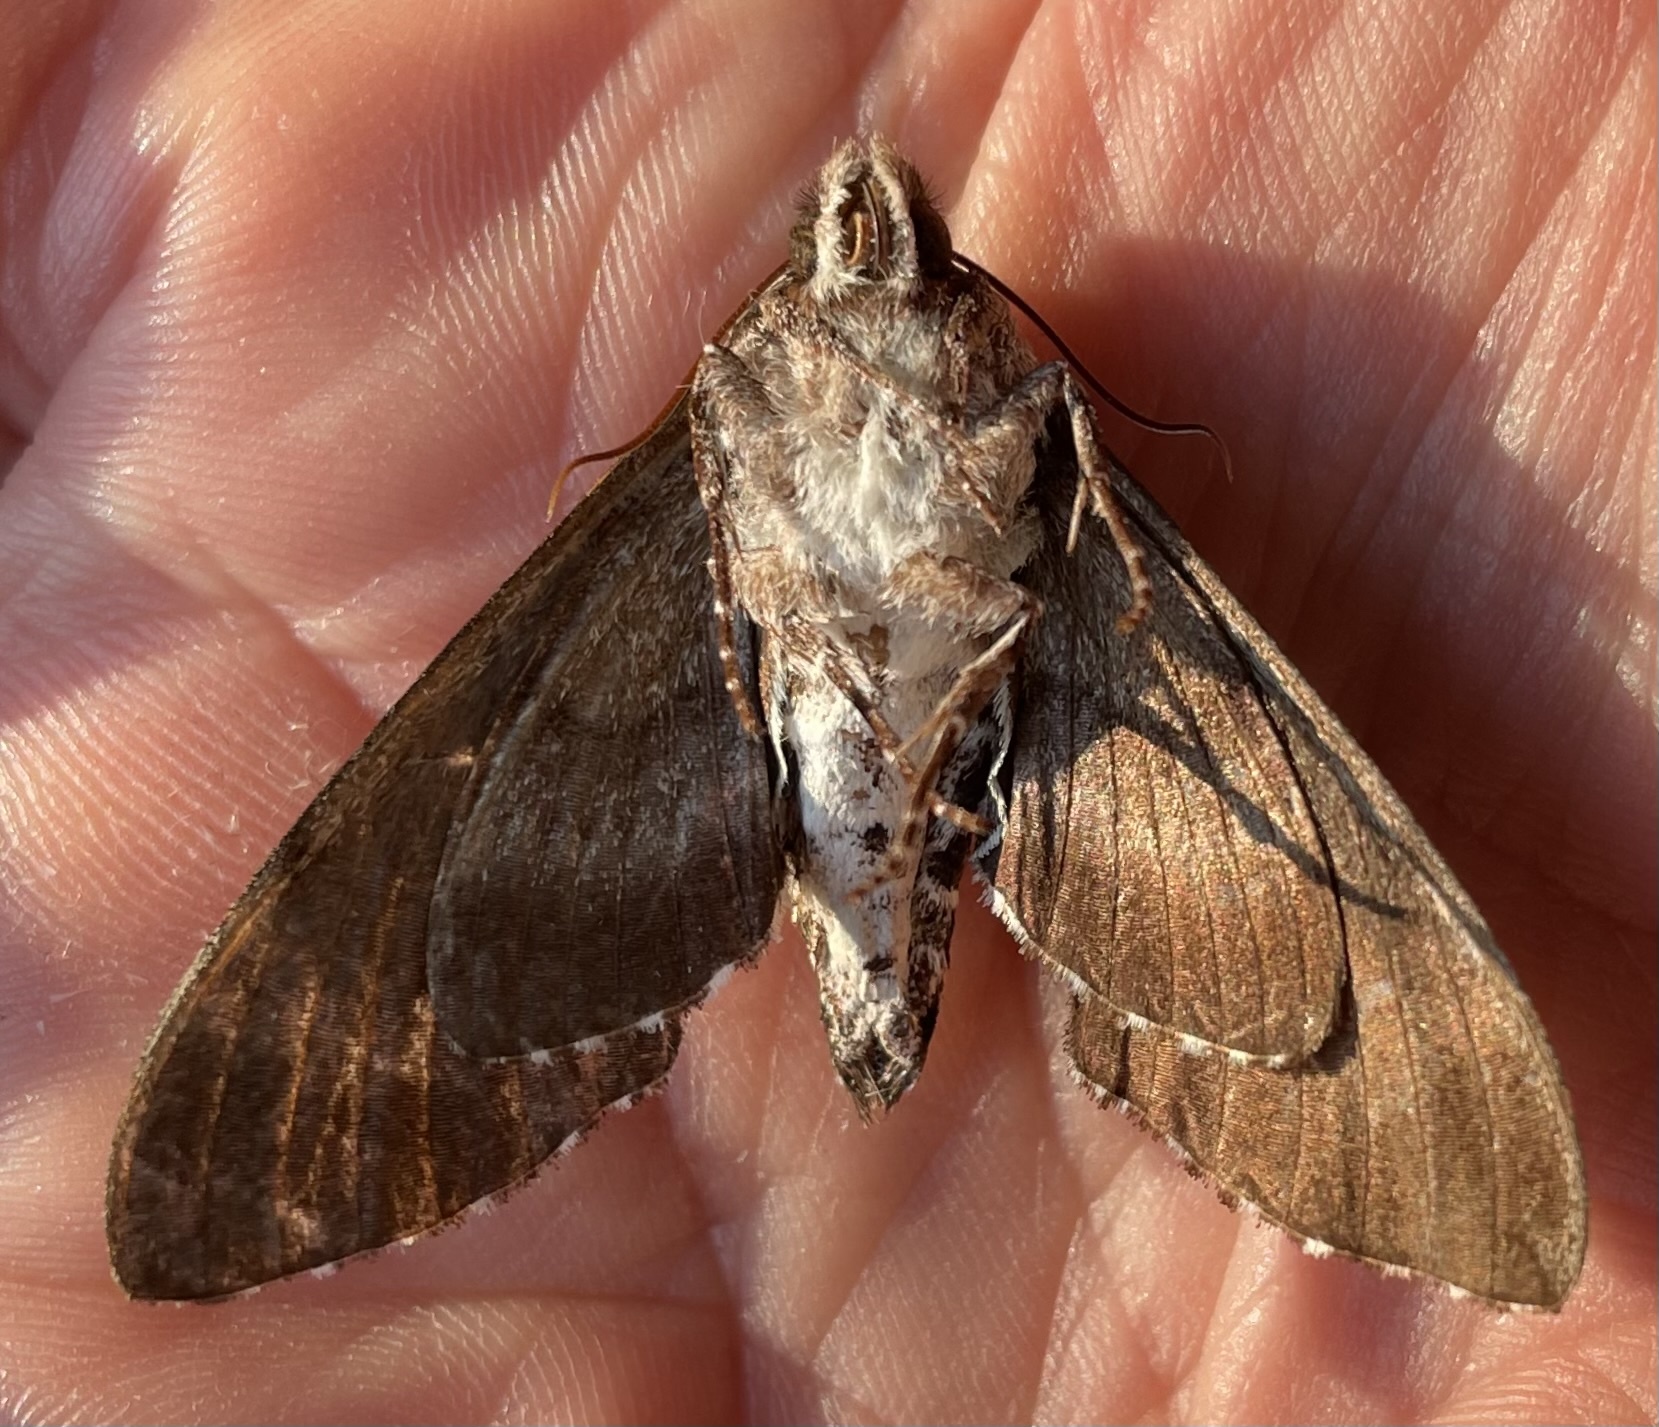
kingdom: Animalia
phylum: Arthropoda
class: Insecta
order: Lepidoptera
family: Sphingidae
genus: Dolba
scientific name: Dolba hyloeus
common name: Pawpaw sphinx
